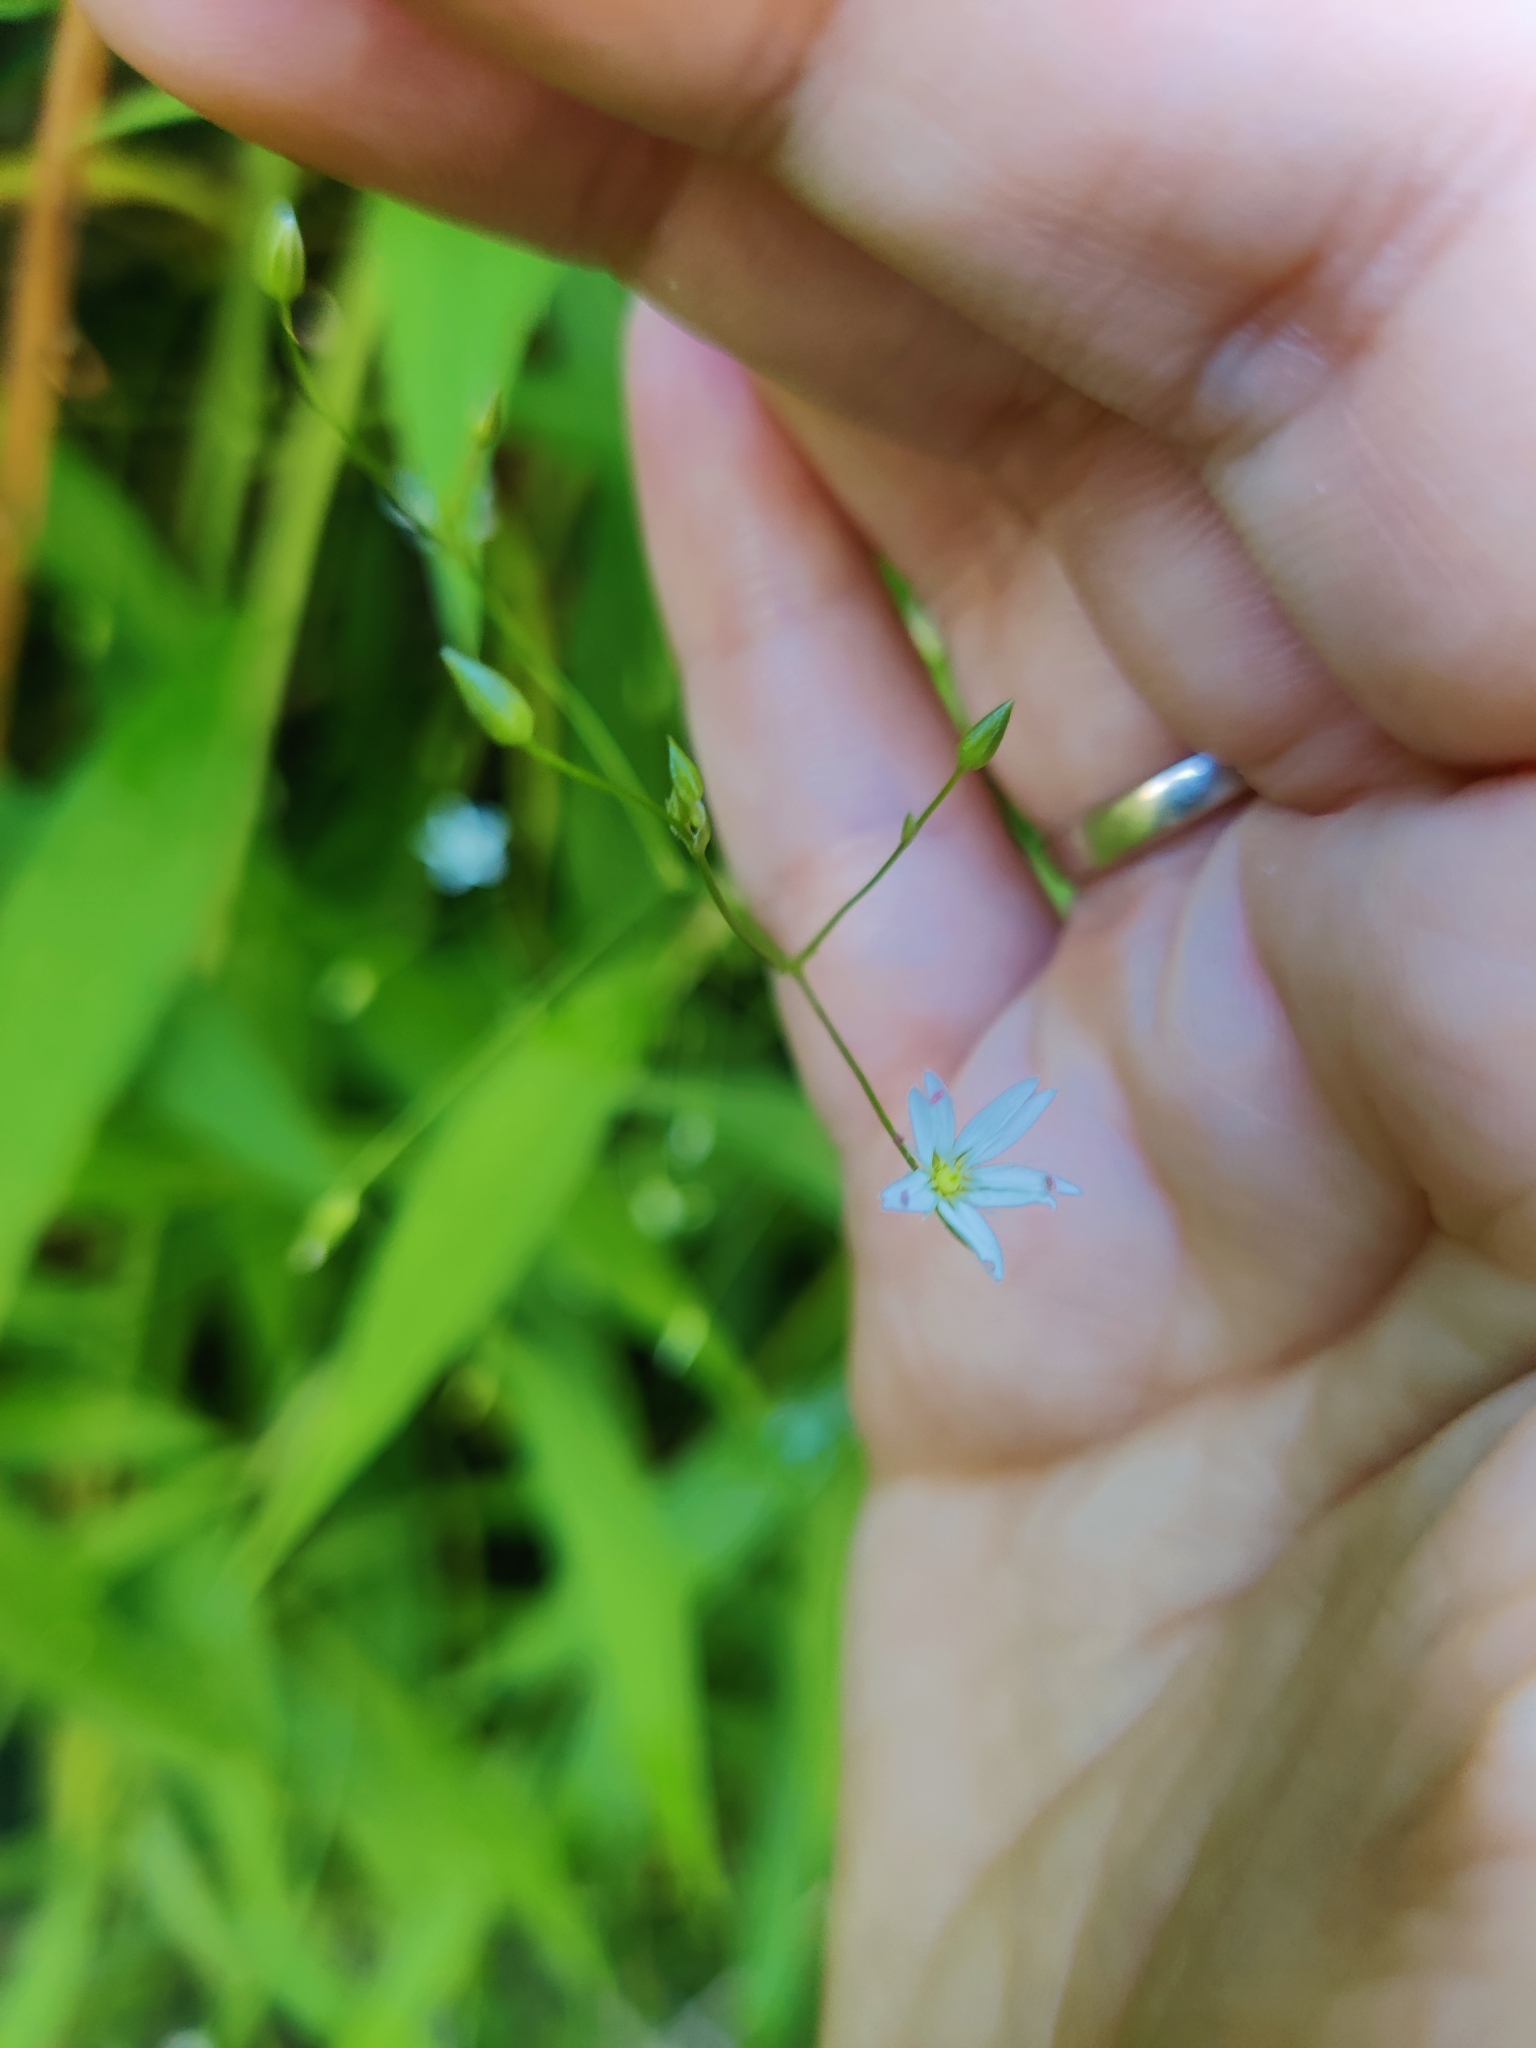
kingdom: Plantae
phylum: Tracheophyta
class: Magnoliopsida
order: Caryophyllales
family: Caryophyllaceae
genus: Stellaria
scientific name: Stellaria graminea
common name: Grass-like starwort
